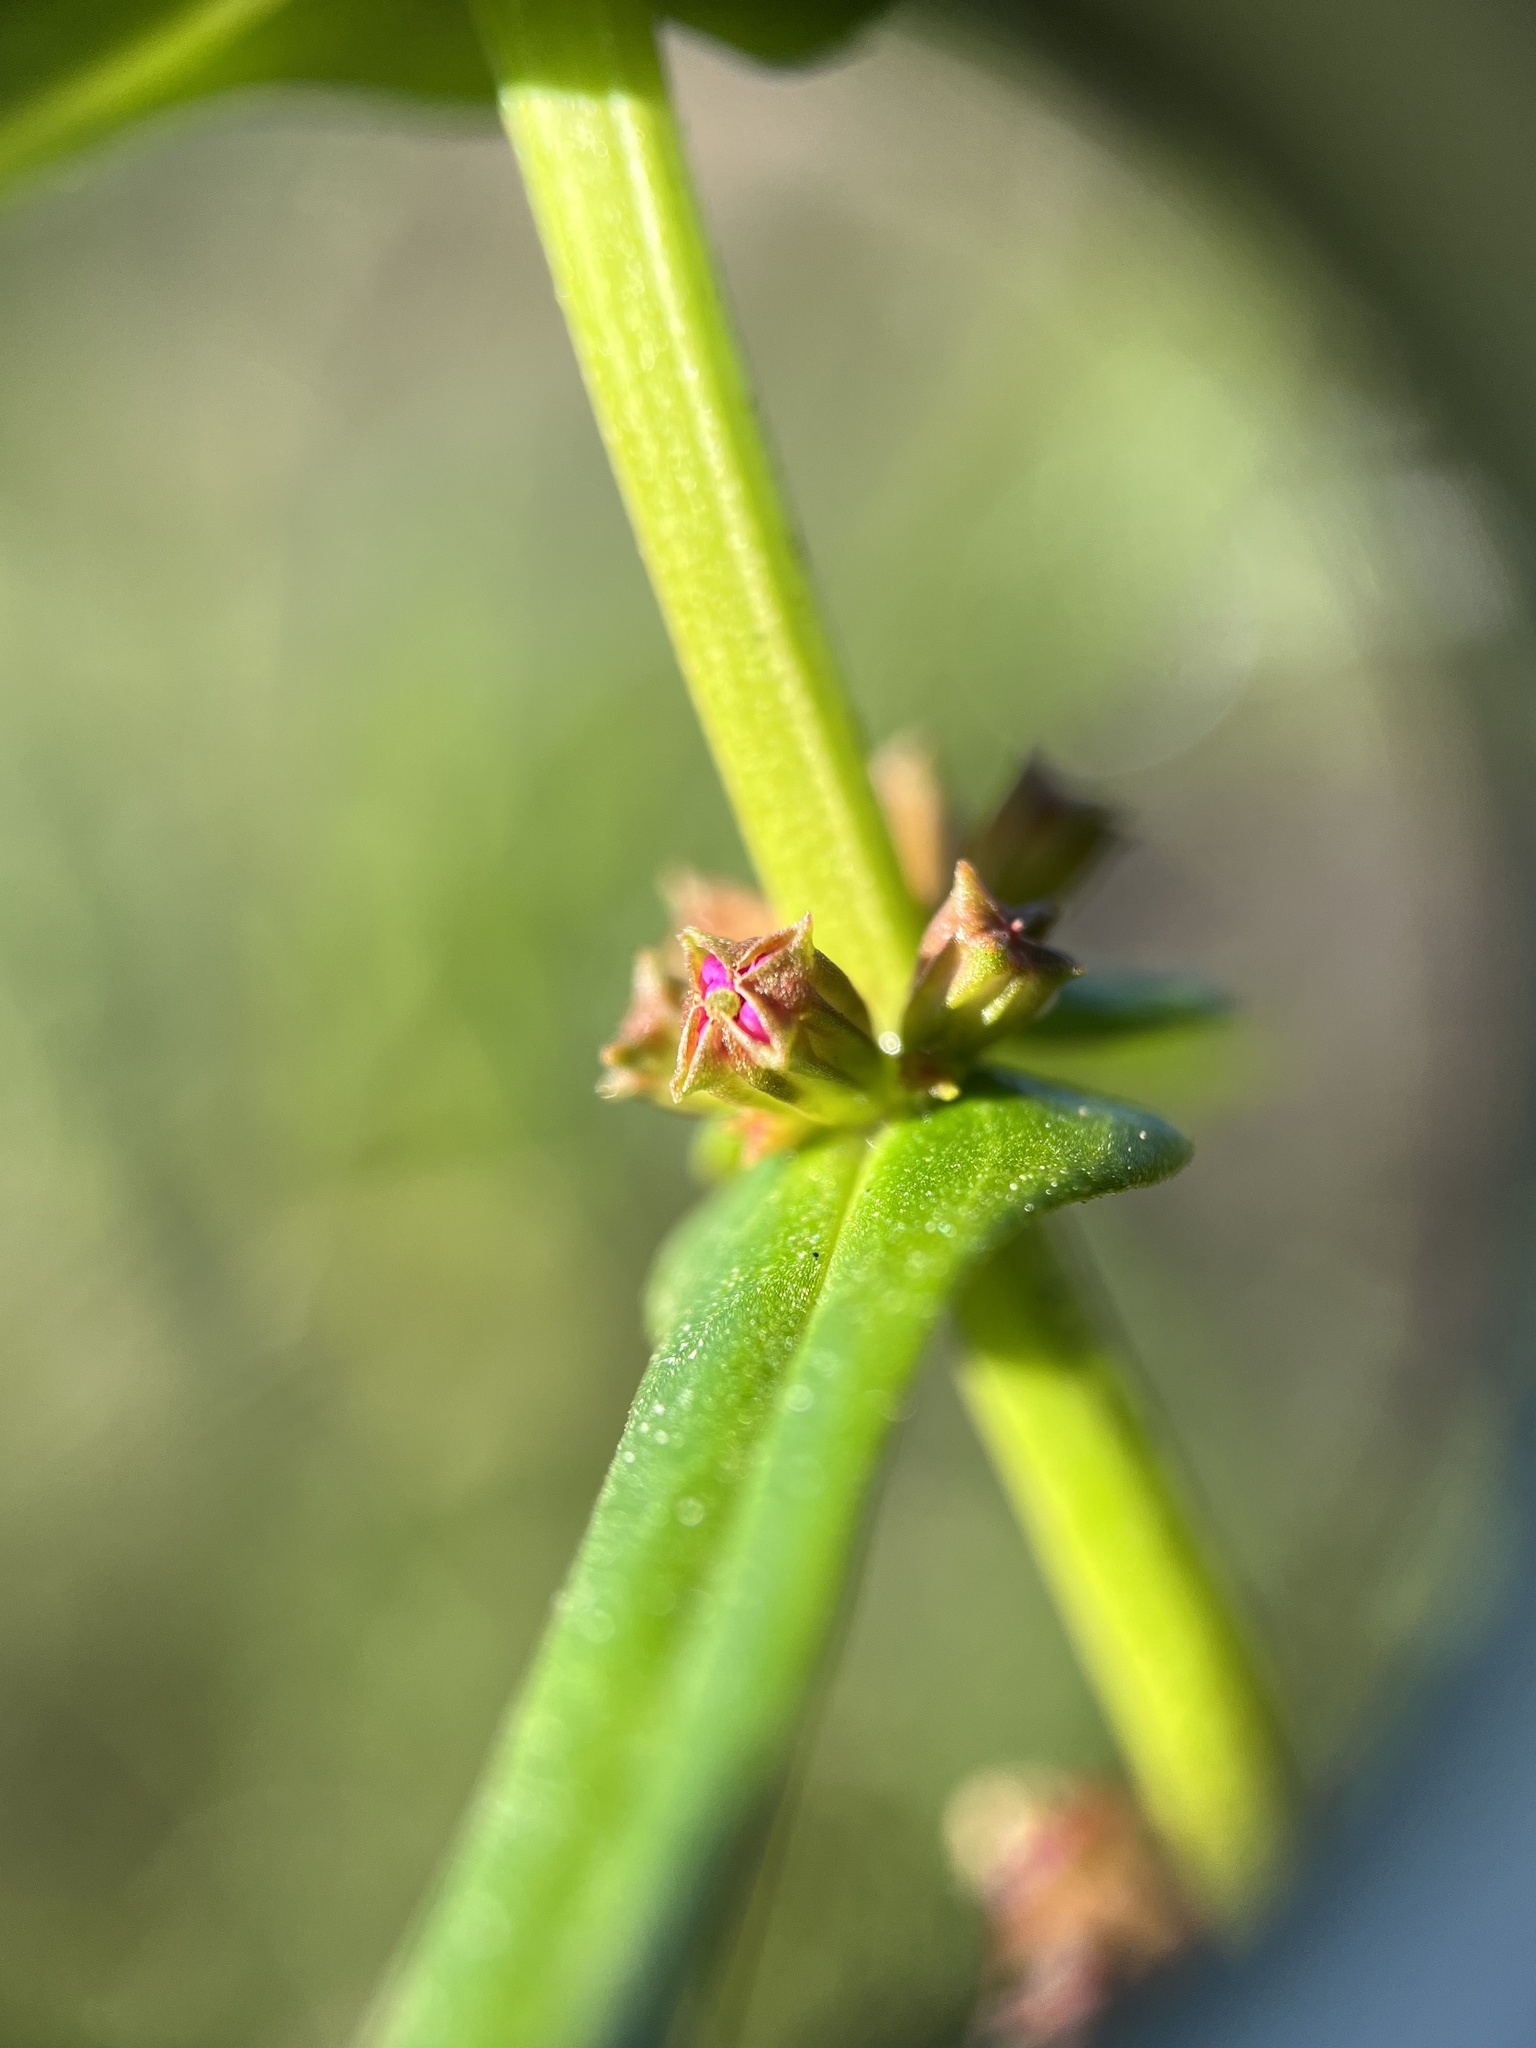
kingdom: Plantae
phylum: Tracheophyta
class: Magnoliopsida
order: Myrtales
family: Lythraceae
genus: Ammannia
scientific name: Ammannia coccinea
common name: Valley redstem
